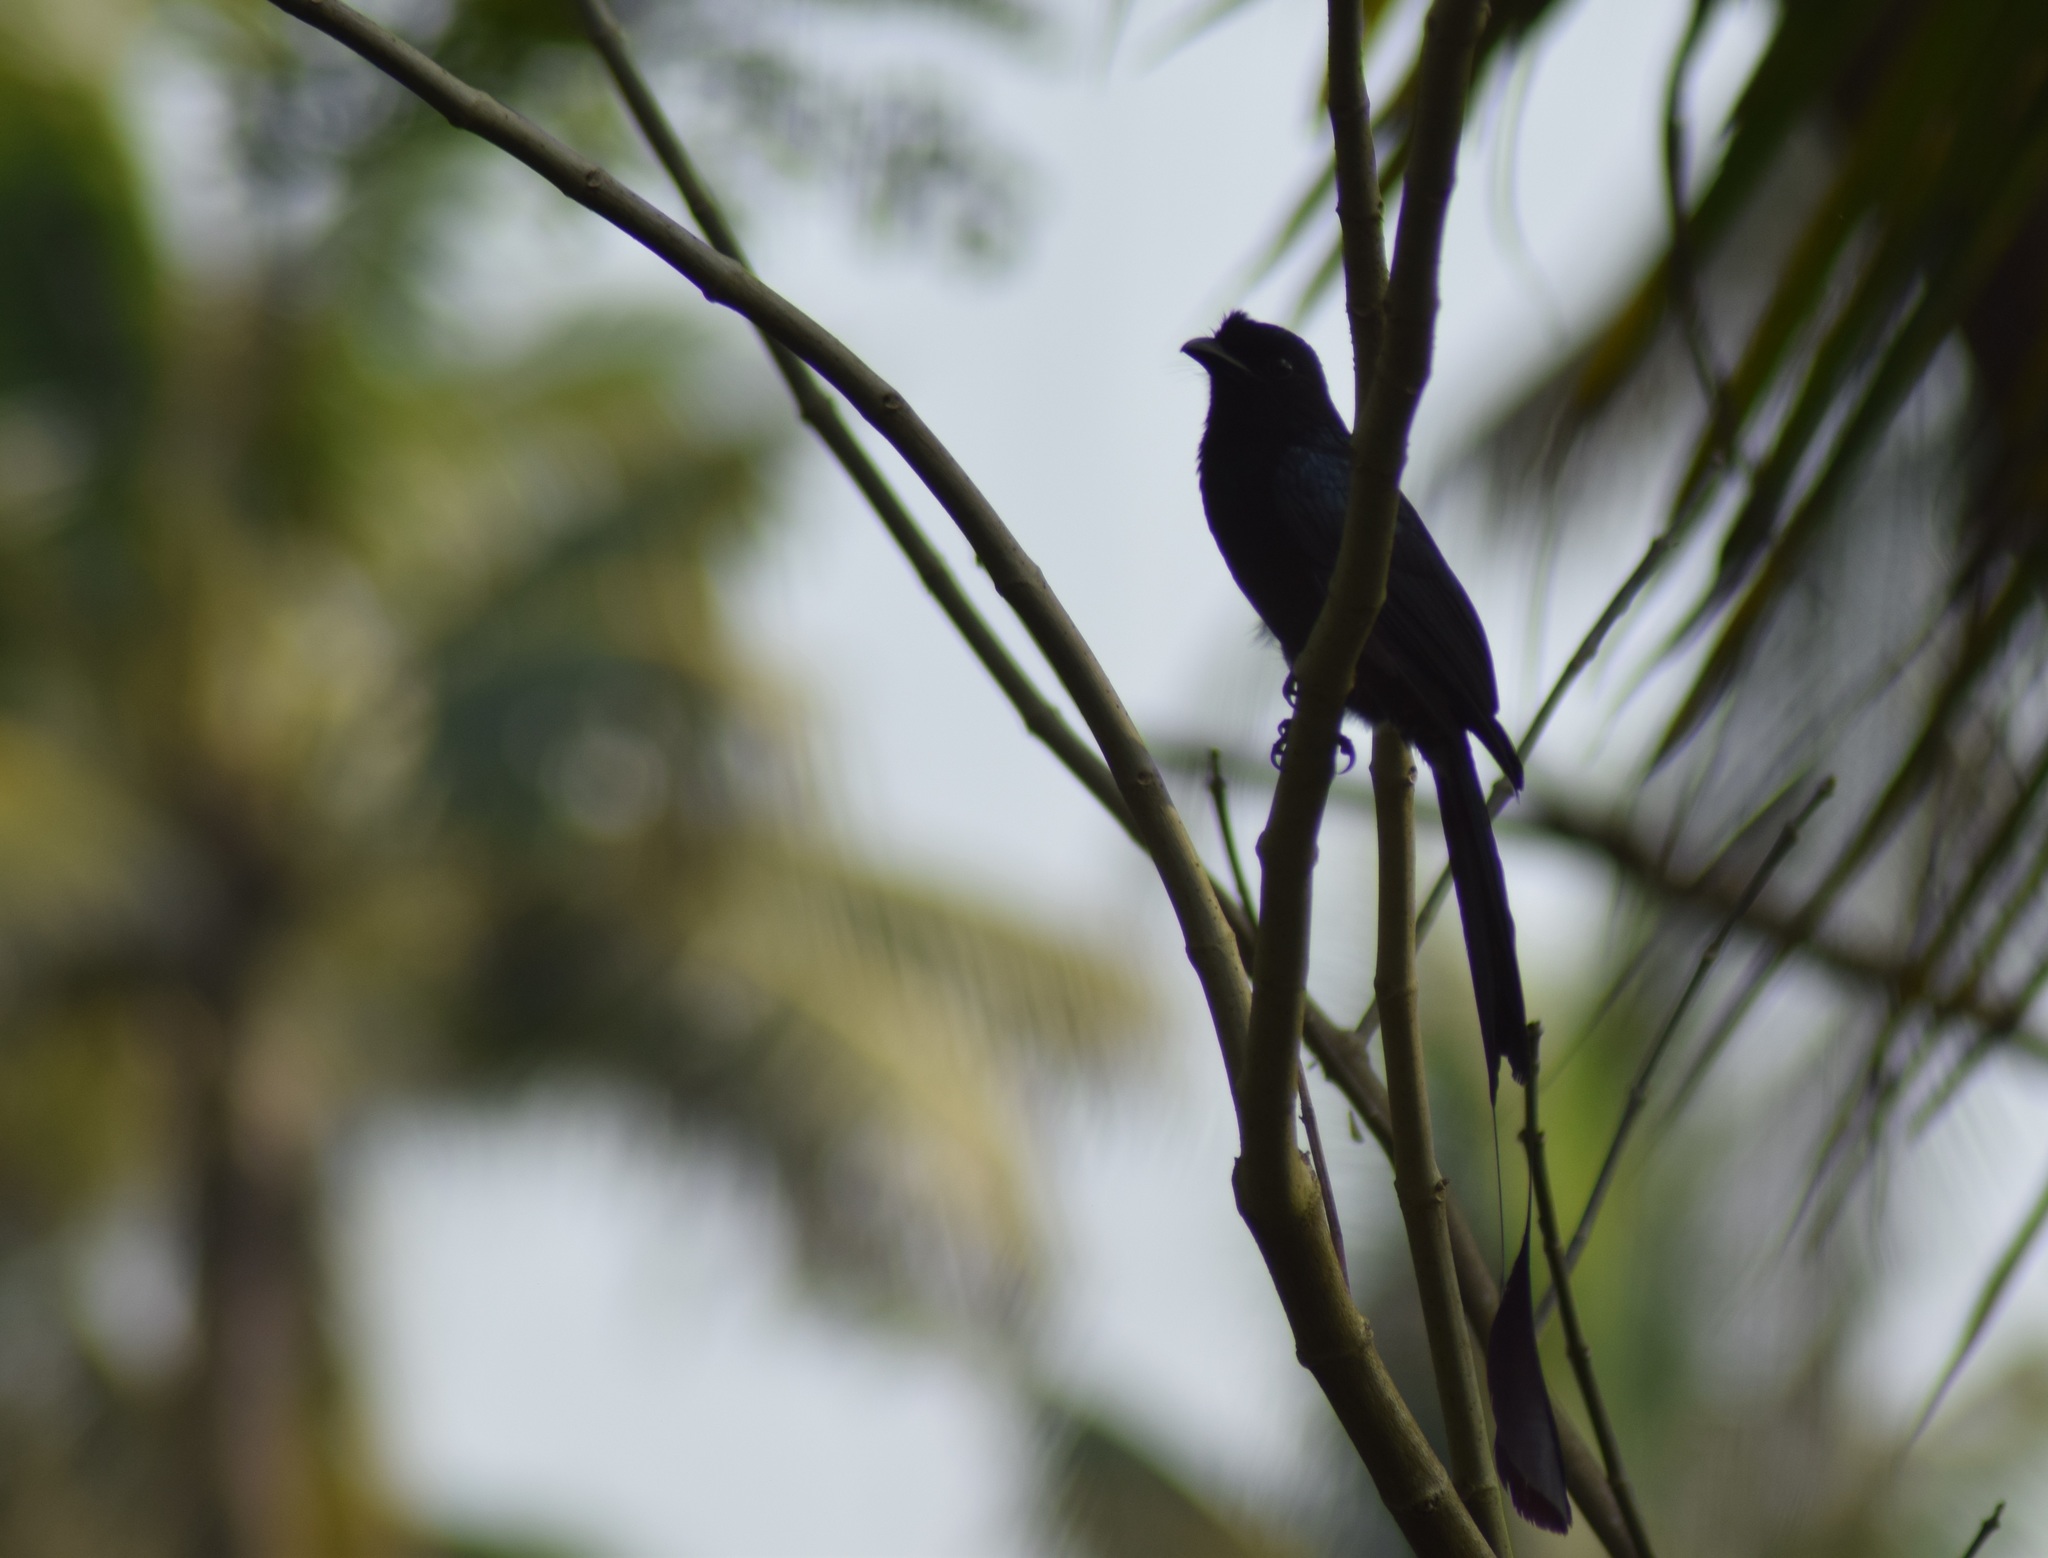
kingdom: Animalia
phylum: Chordata
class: Aves
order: Passeriformes
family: Dicruridae
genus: Dicrurus
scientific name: Dicrurus paradiseus
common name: Greater racket-tailed drongo
